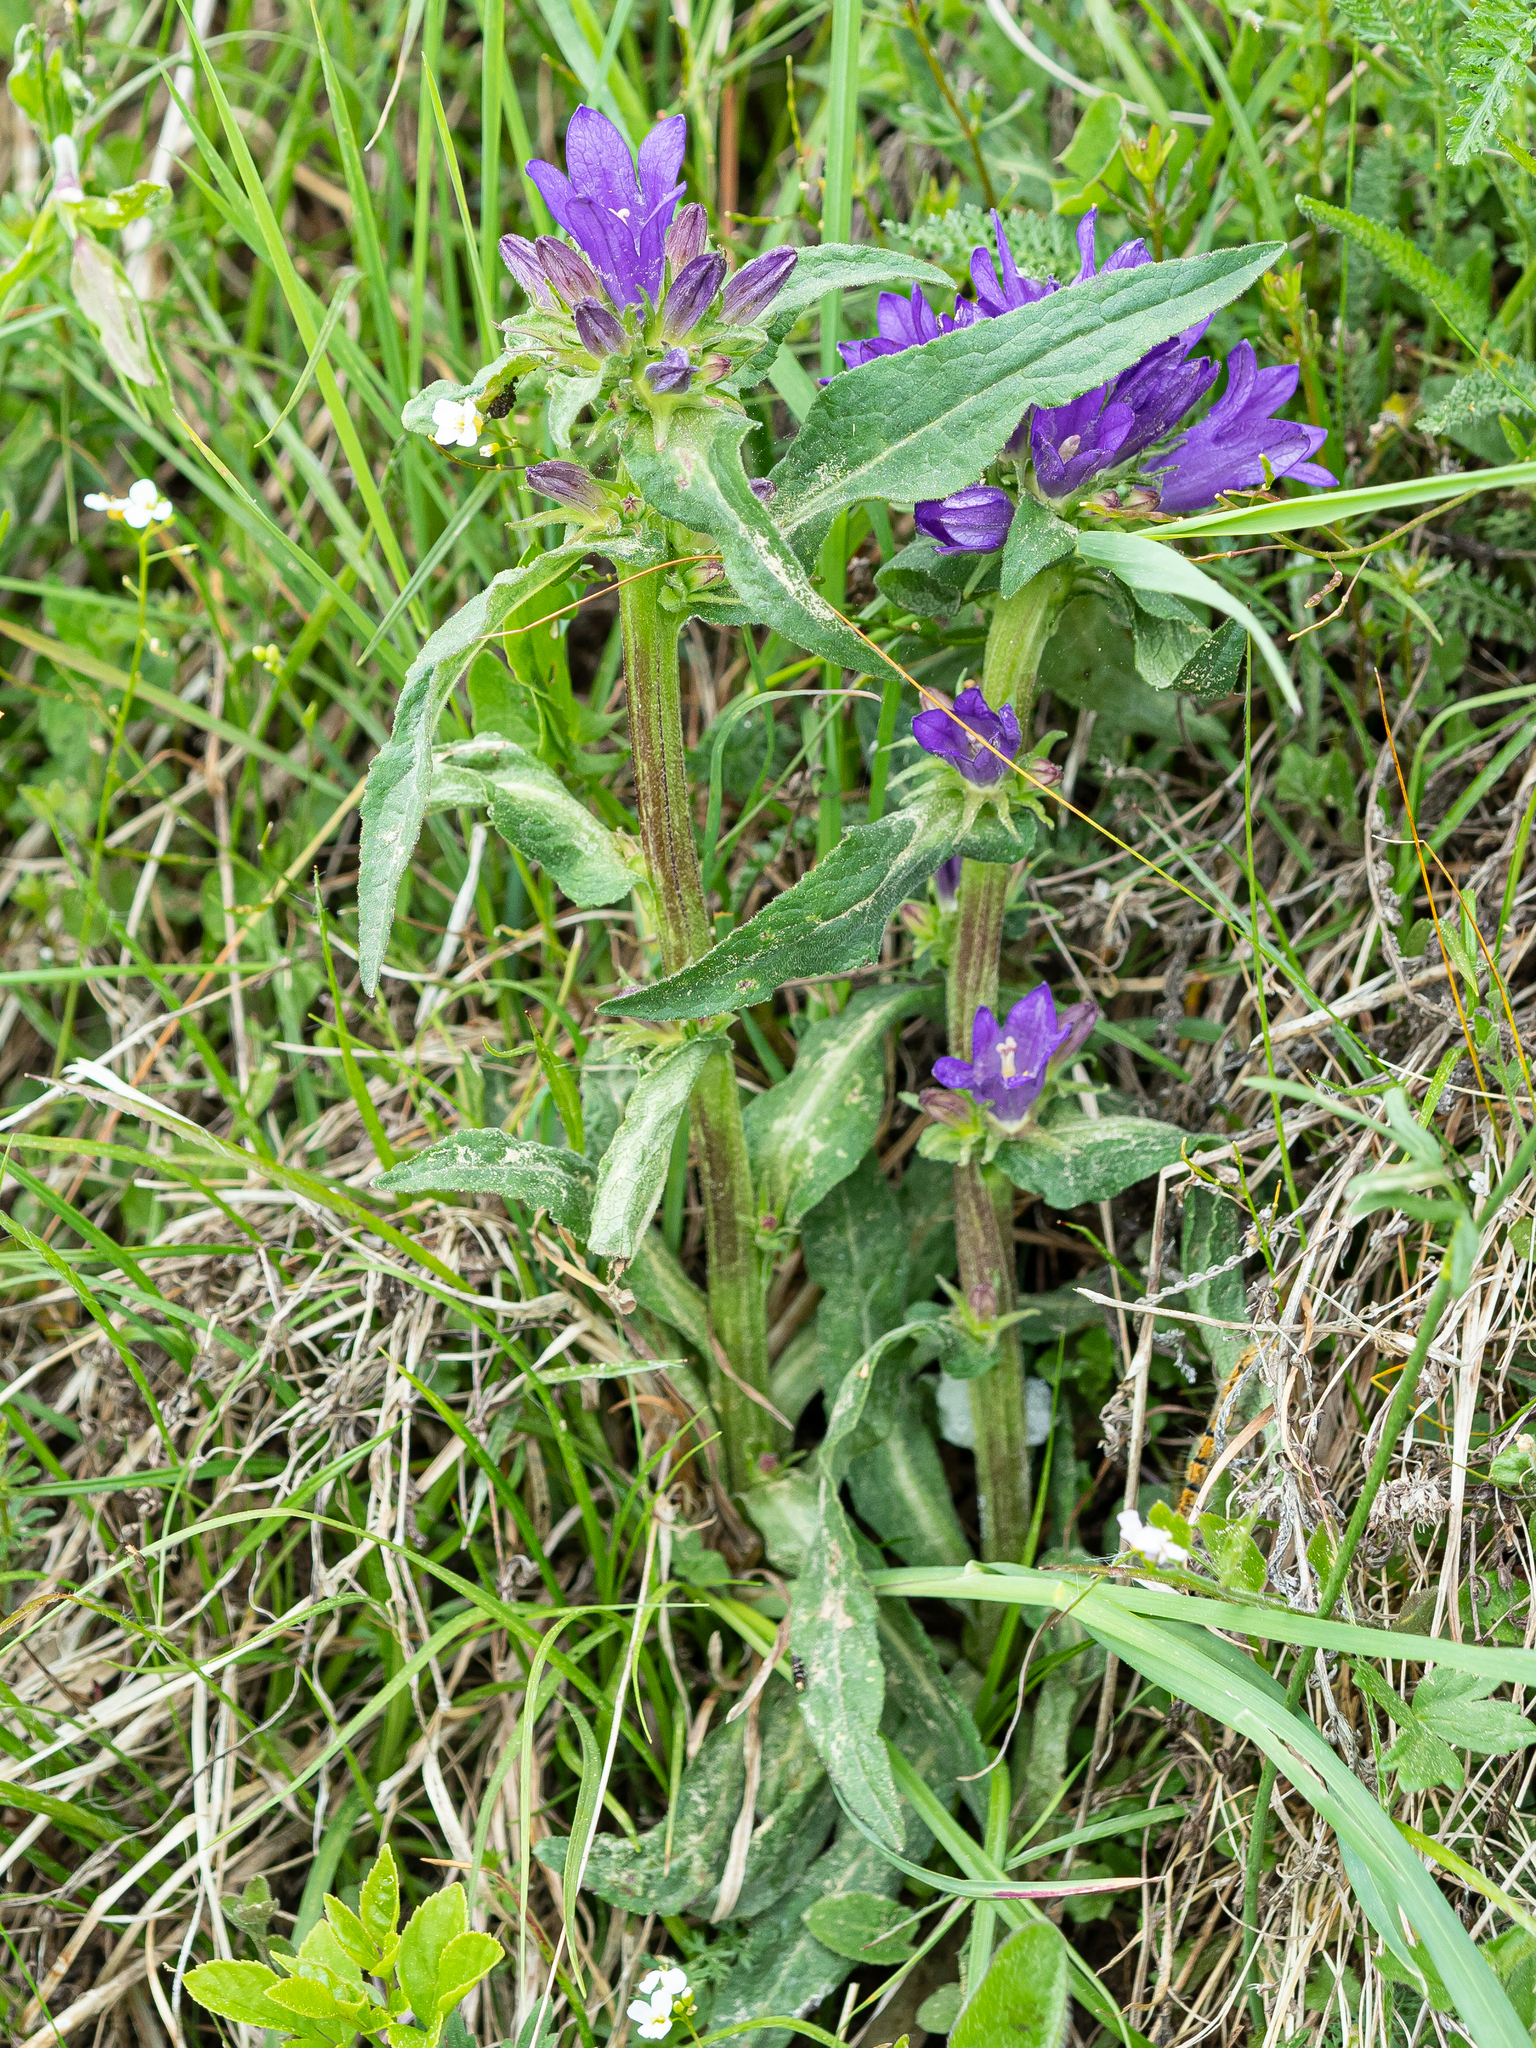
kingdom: Plantae
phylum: Tracheophyta
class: Magnoliopsida
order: Asterales
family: Campanulaceae
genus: Campanula
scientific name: Campanula glomerata
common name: Clustered bellflower
